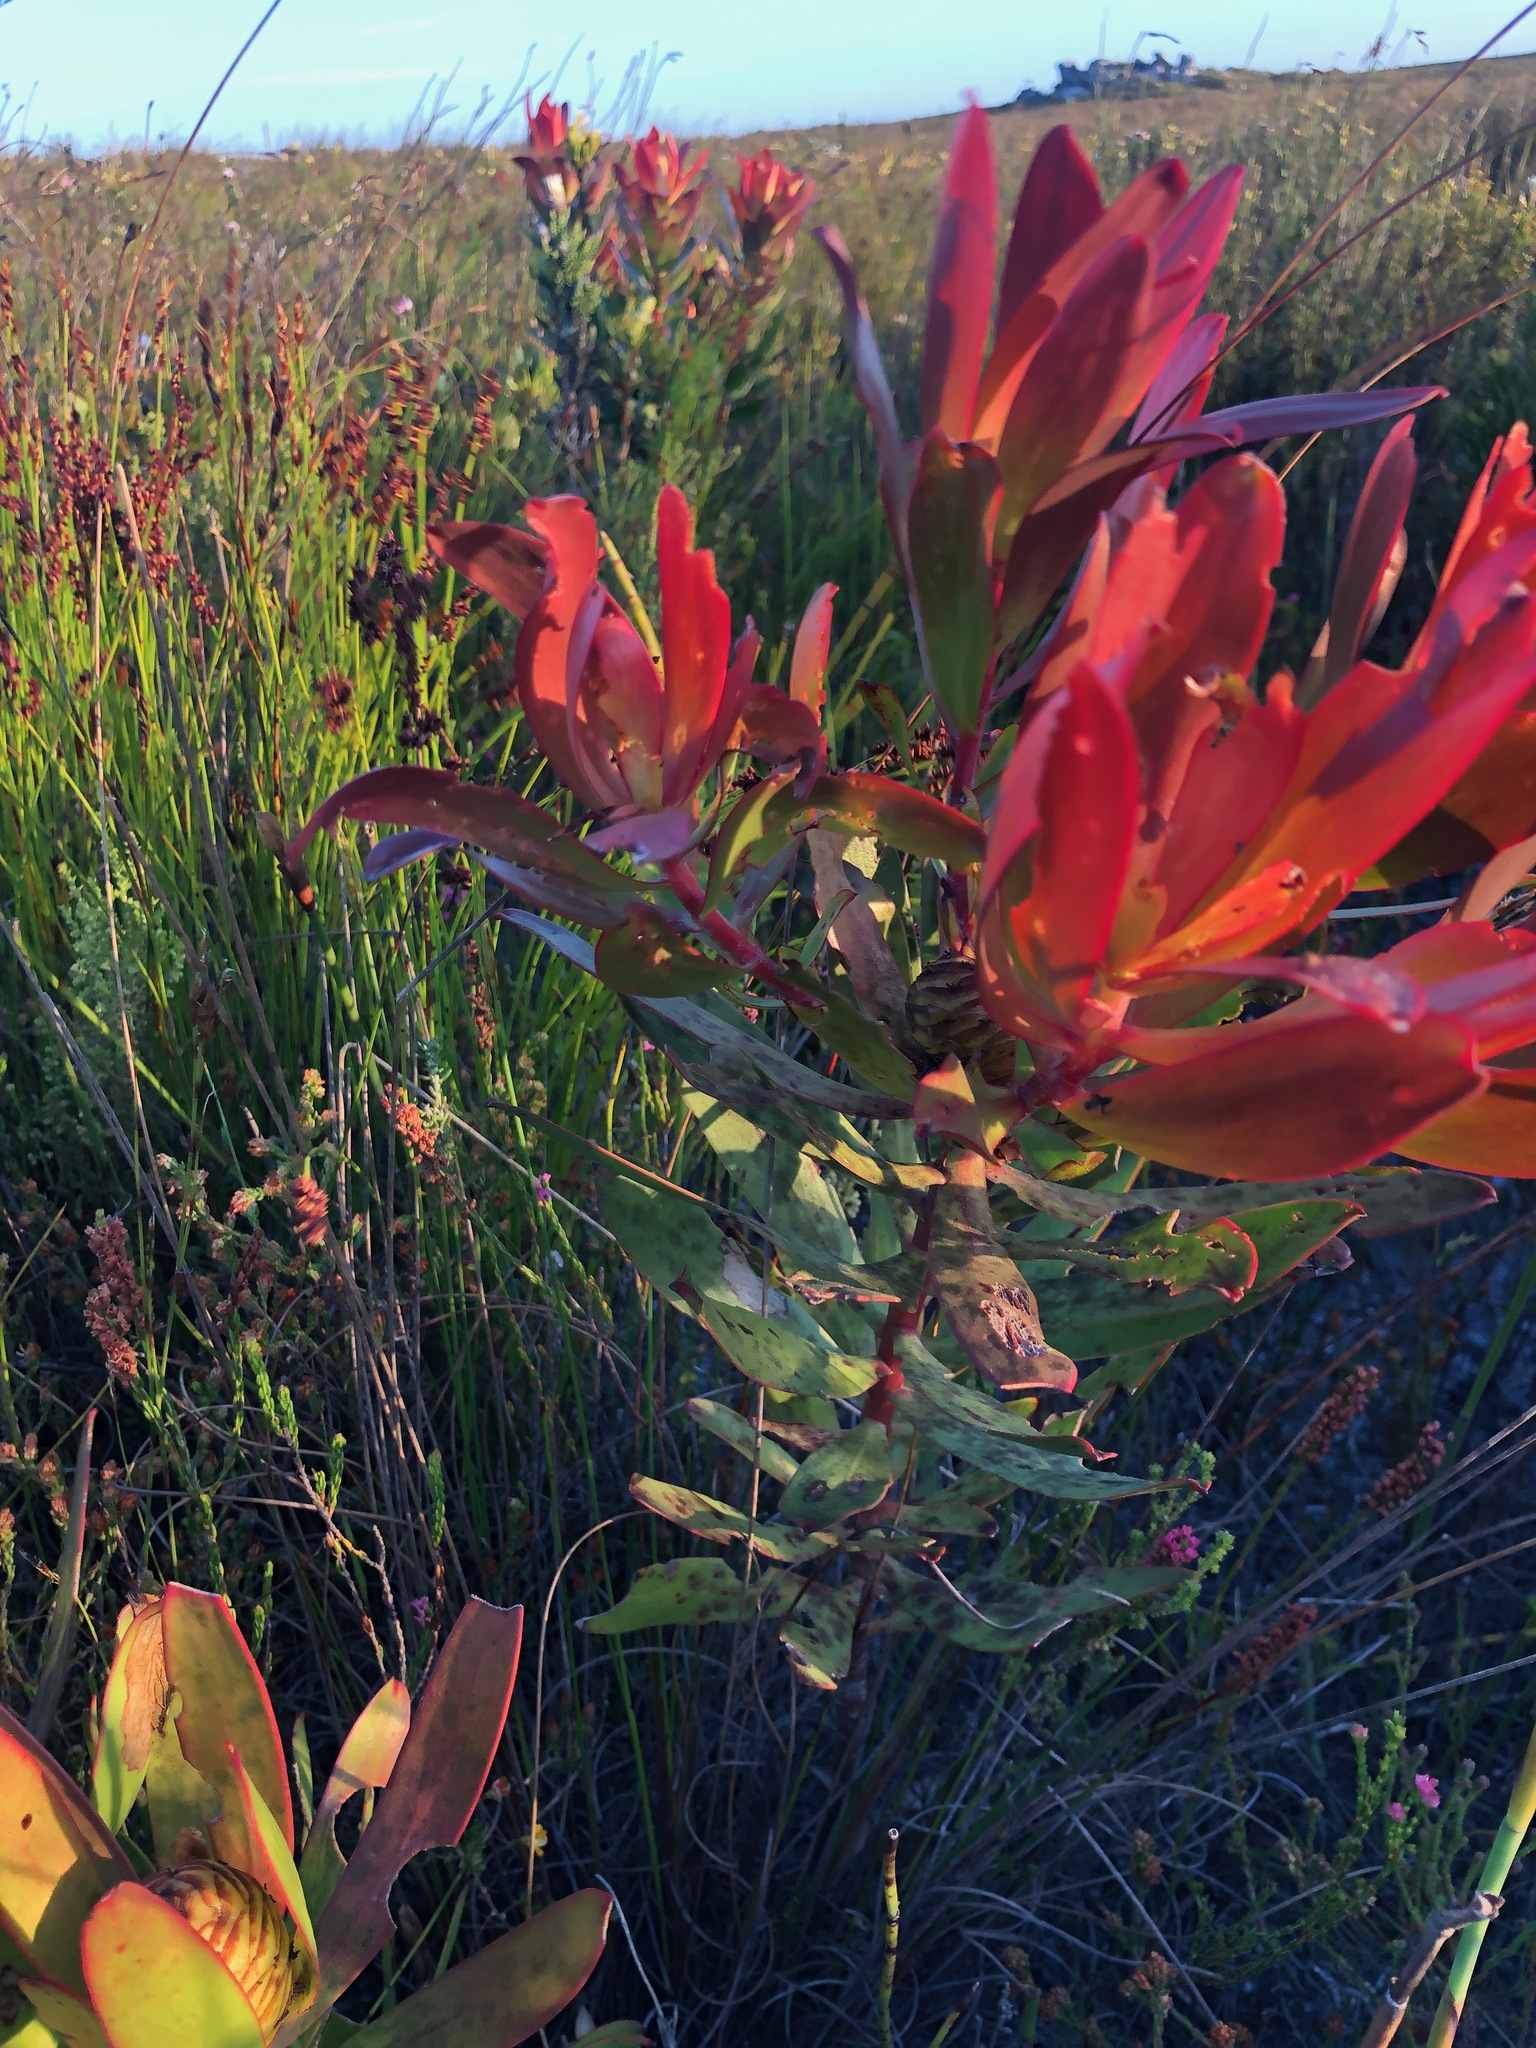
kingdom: Plantae
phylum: Tracheophyta
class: Magnoliopsida
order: Proteales
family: Proteaceae
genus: Leucadendron
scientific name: Leucadendron gandogeri
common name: Broad-leaf conebush
